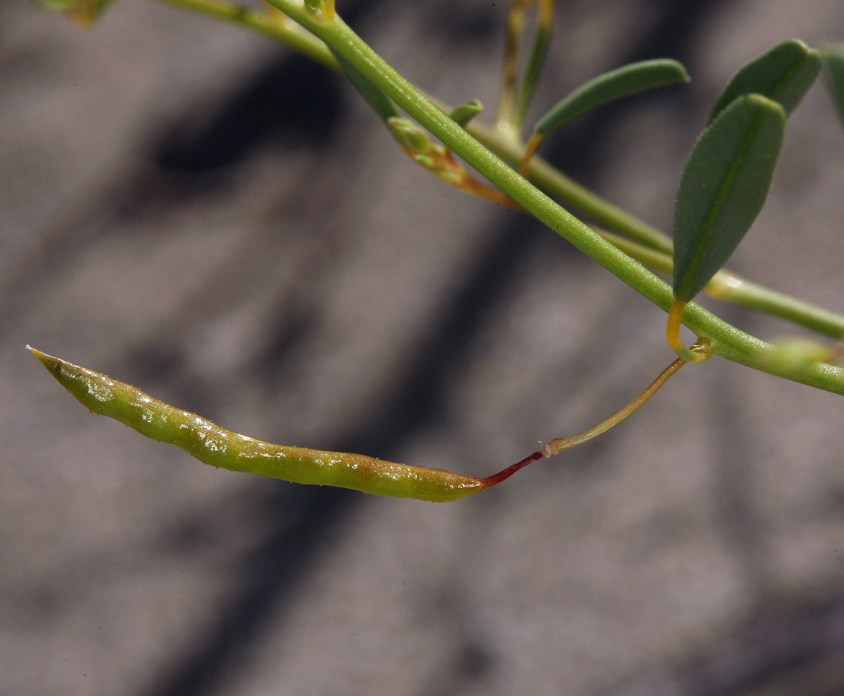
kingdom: Plantae
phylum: Tracheophyta
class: Magnoliopsida
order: Brassicales
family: Cleomaceae
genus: Cleomella
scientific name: Cleomella sparsifolia
